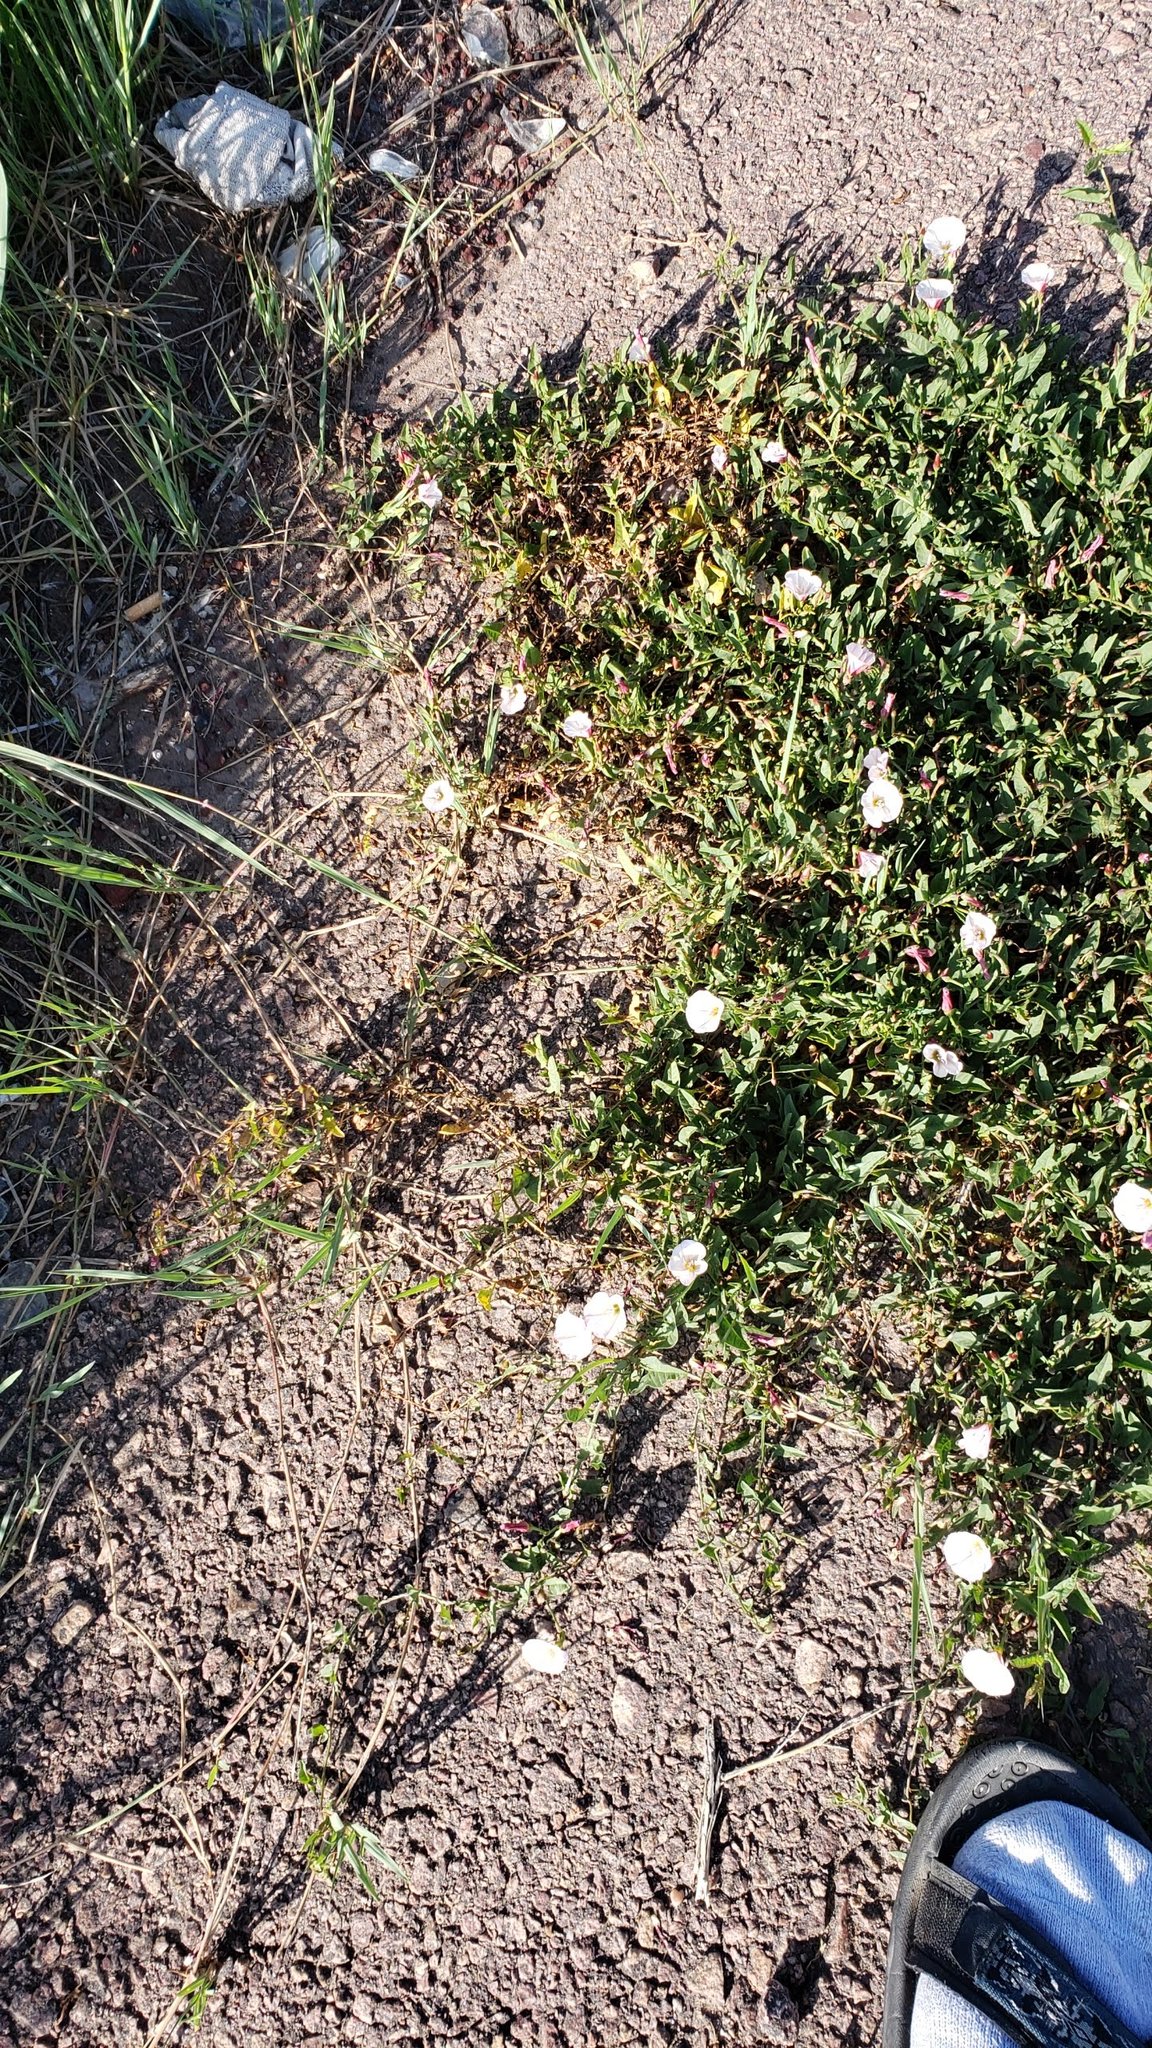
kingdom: Plantae
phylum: Tracheophyta
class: Magnoliopsida
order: Solanales
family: Convolvulaceae
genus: Convolvulus
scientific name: Convolvulus arvensis
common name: Field bindweed
